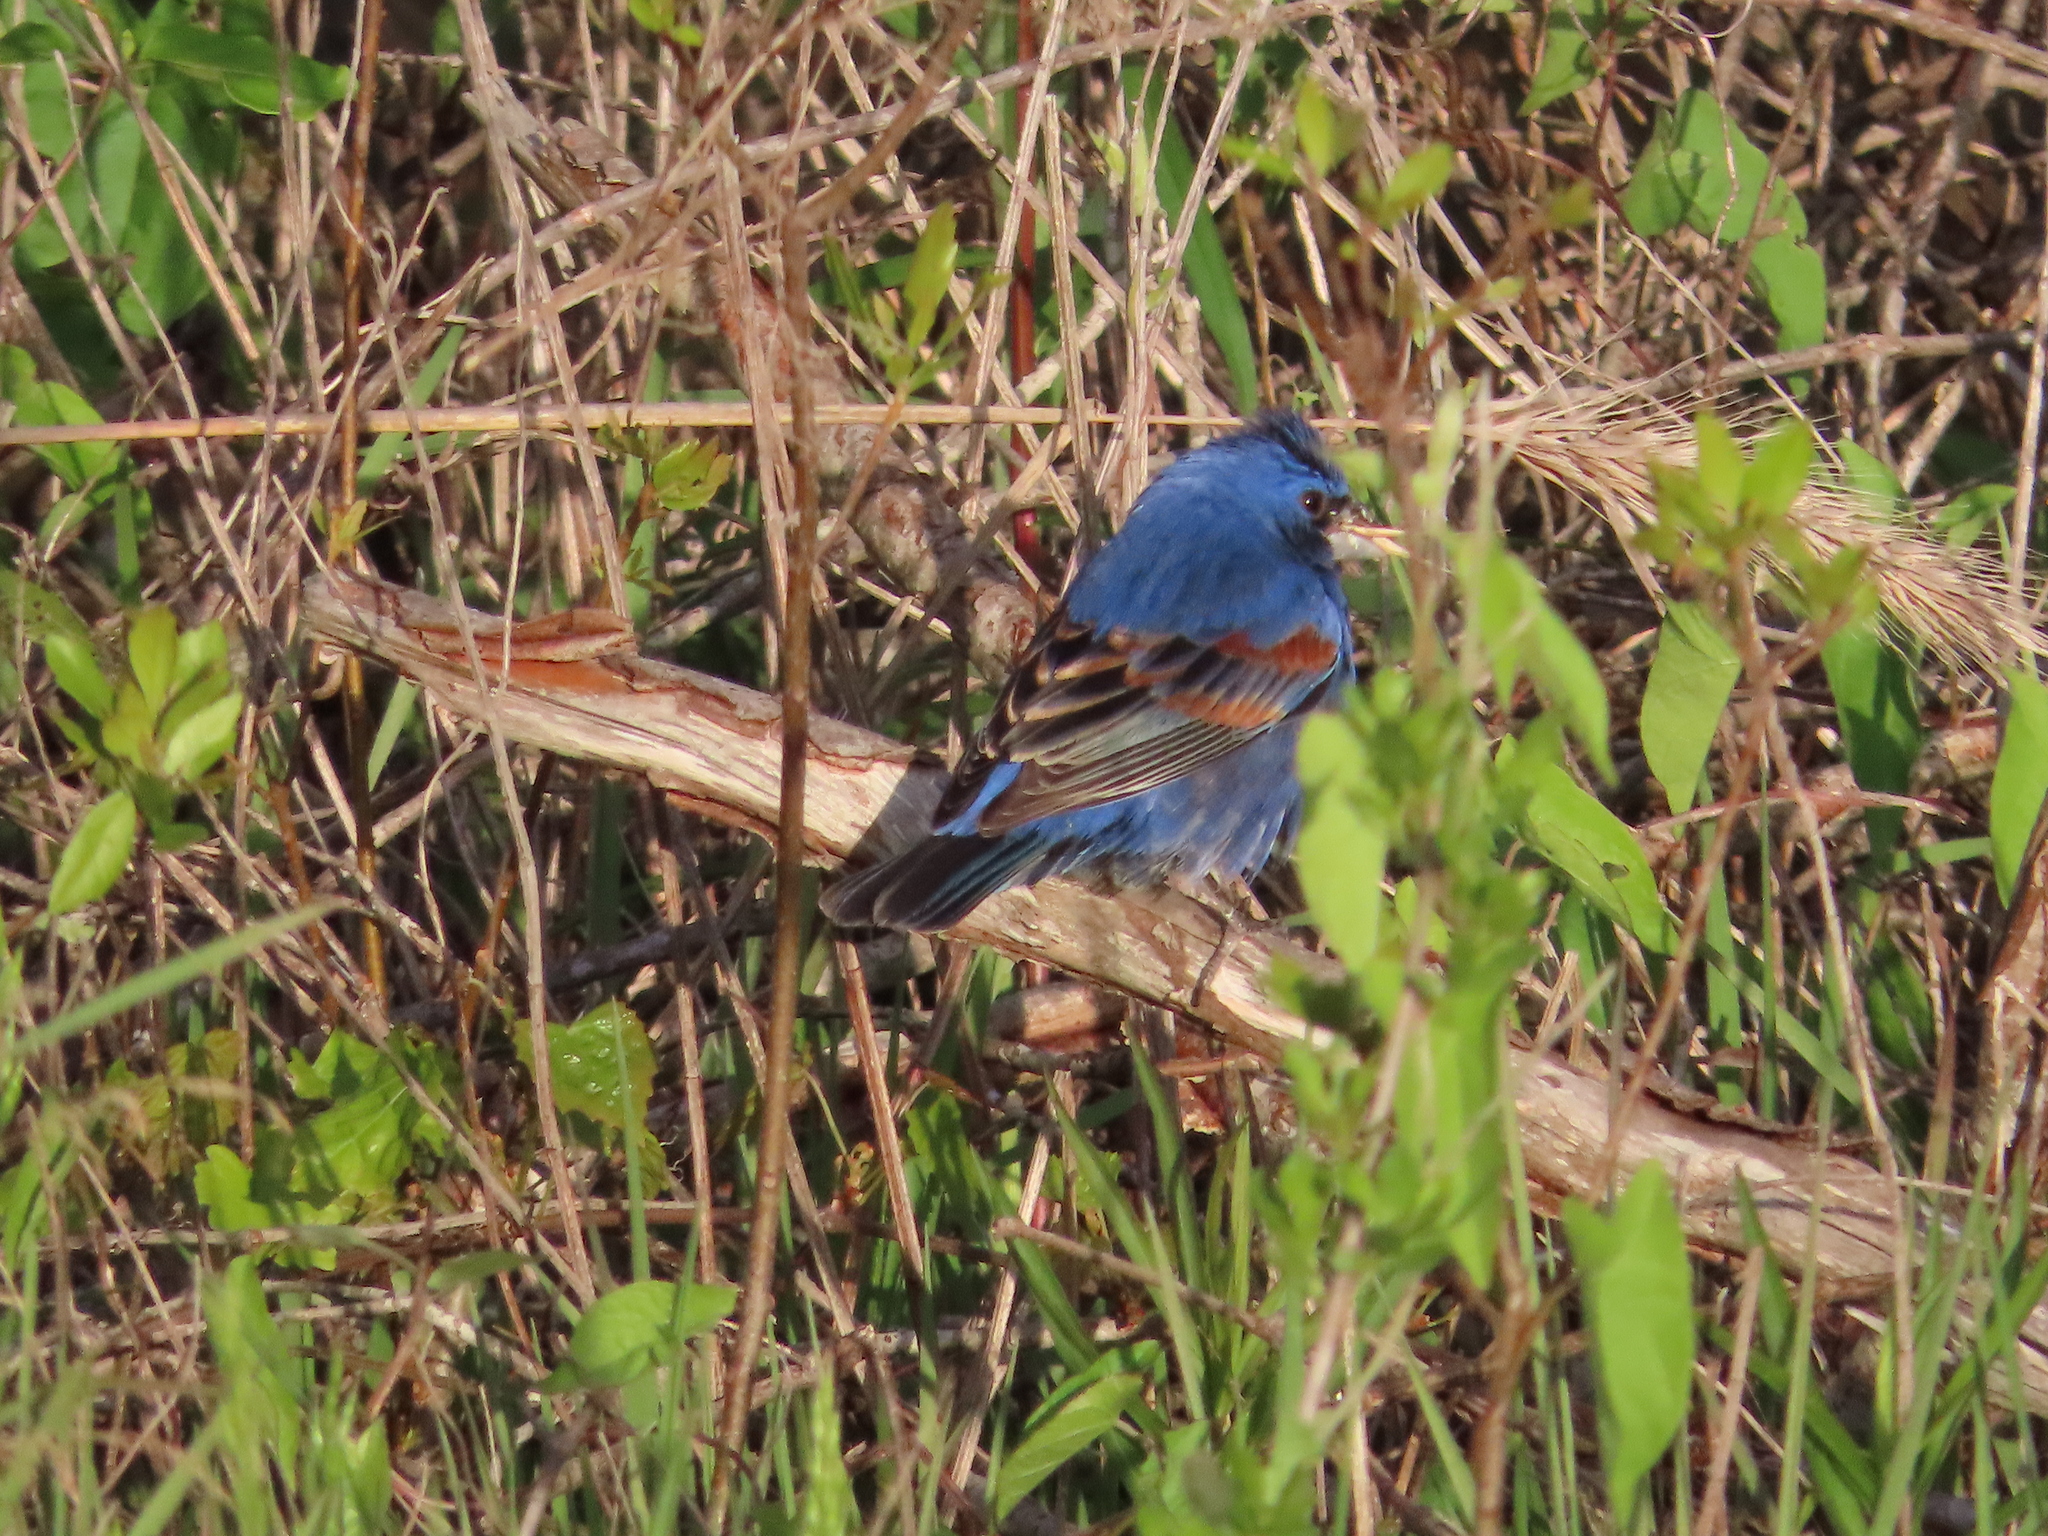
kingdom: Animalia
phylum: Chordata
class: Aves
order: Passeriformes
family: Cardinalidae
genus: Passerina
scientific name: Passerina caerulea
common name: Blue grosbeak
